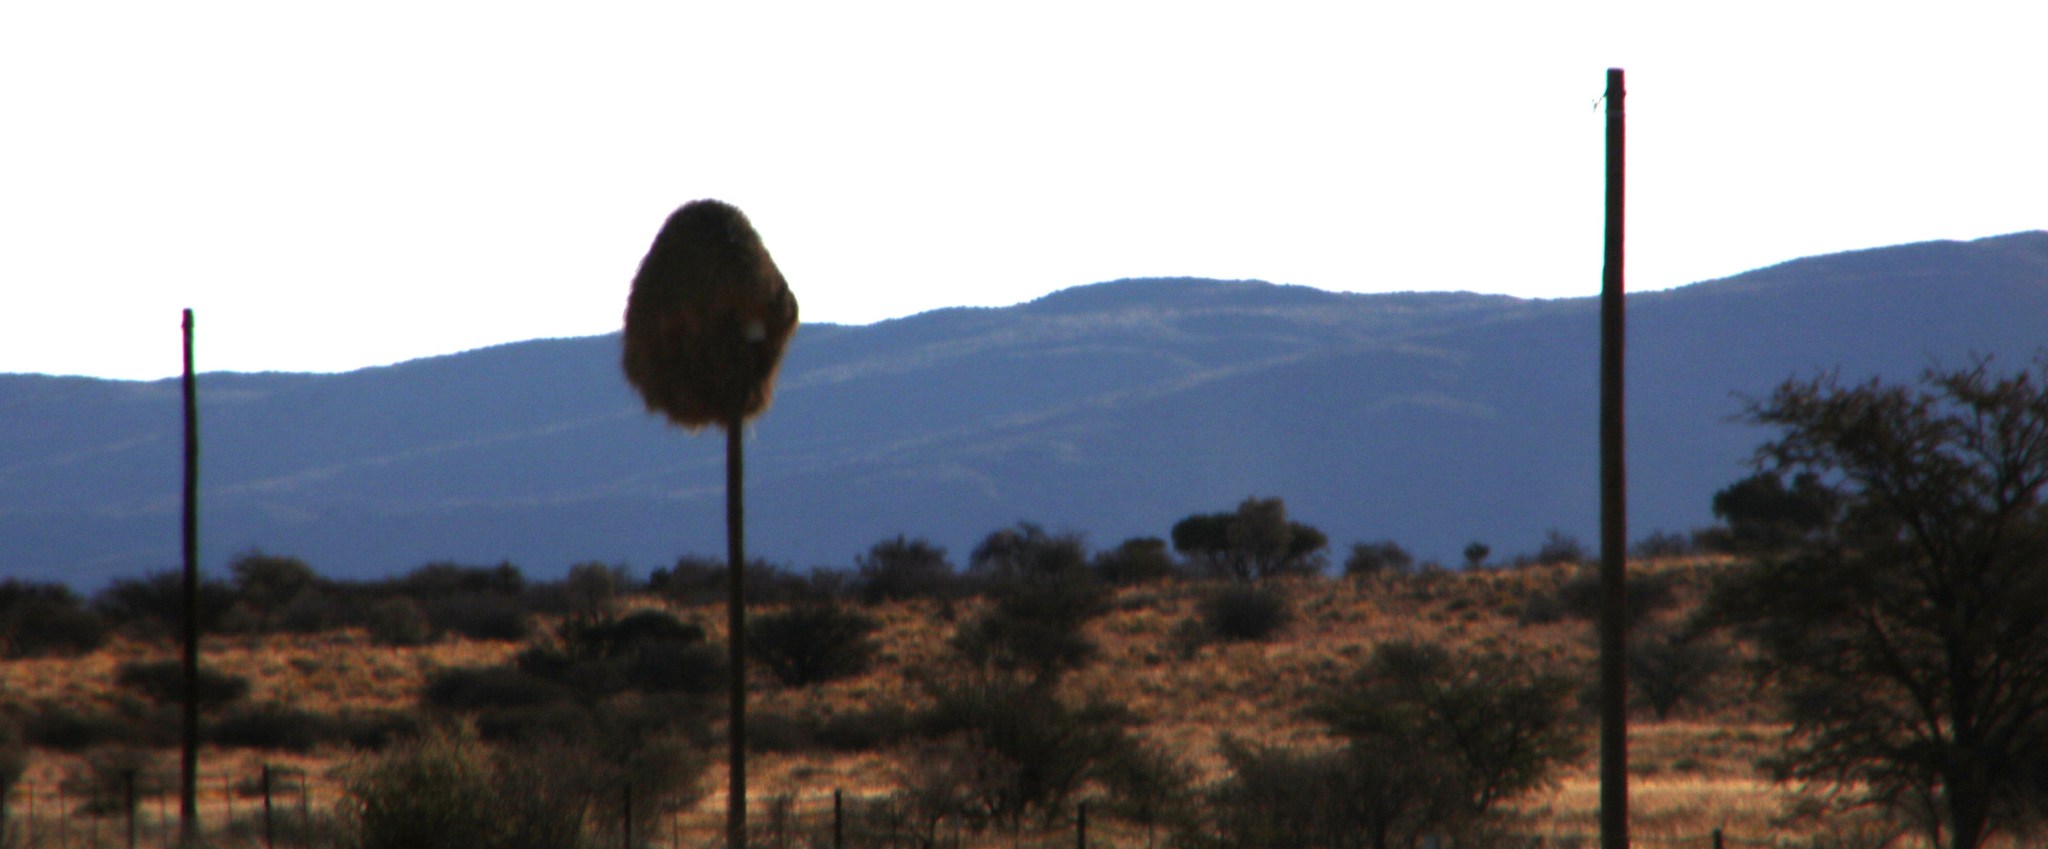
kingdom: Animalia
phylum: Chordata
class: Aves
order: Passeriformes
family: Passeridae
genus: Philetairus
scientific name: Philetairus socius
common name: Sociable weaver
